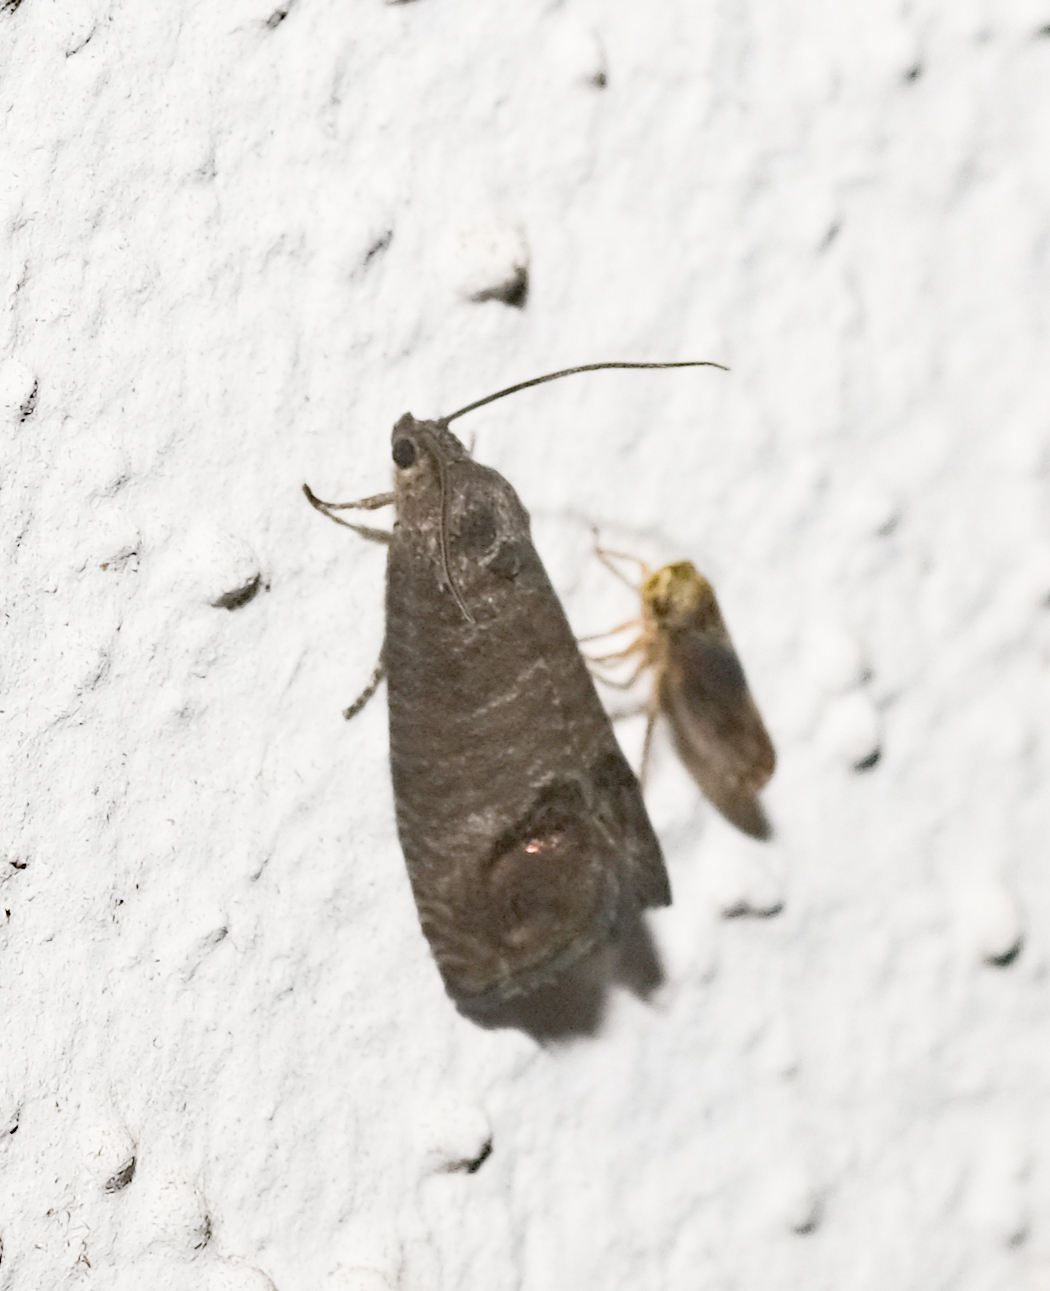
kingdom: Animalia
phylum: Arthropoda
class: Insecta
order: Lepidoptera
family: Tortricidae
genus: Cydia
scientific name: Cydia pomonella
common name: Codling moth
